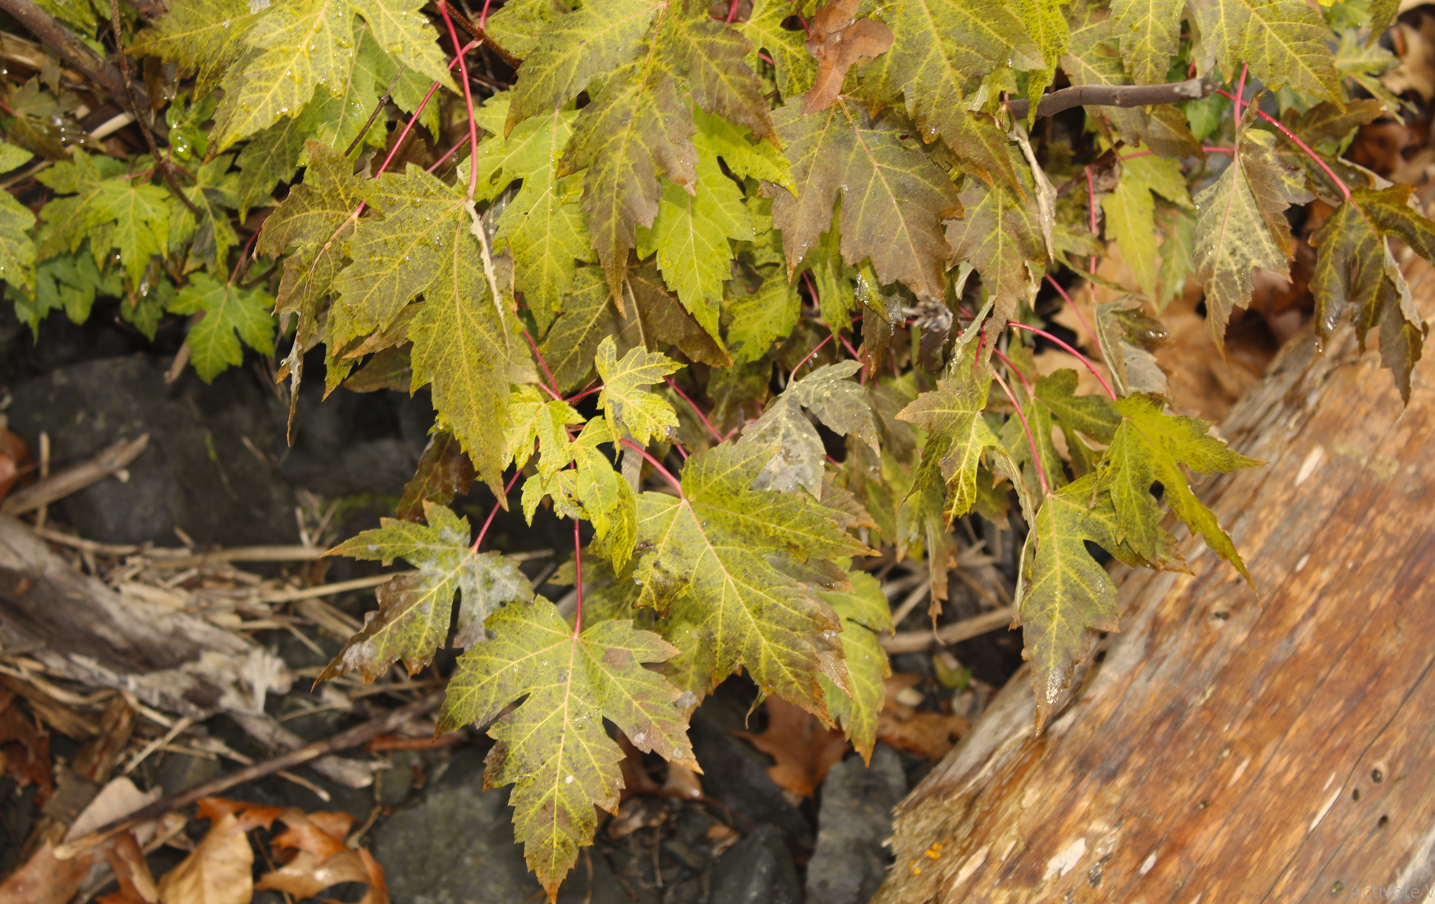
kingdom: Plantae
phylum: Tracheophyta
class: Magnoliopsida
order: Sapindales
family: Sapindaceae
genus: Acer
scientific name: Acer saccharinum
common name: Silver maple
